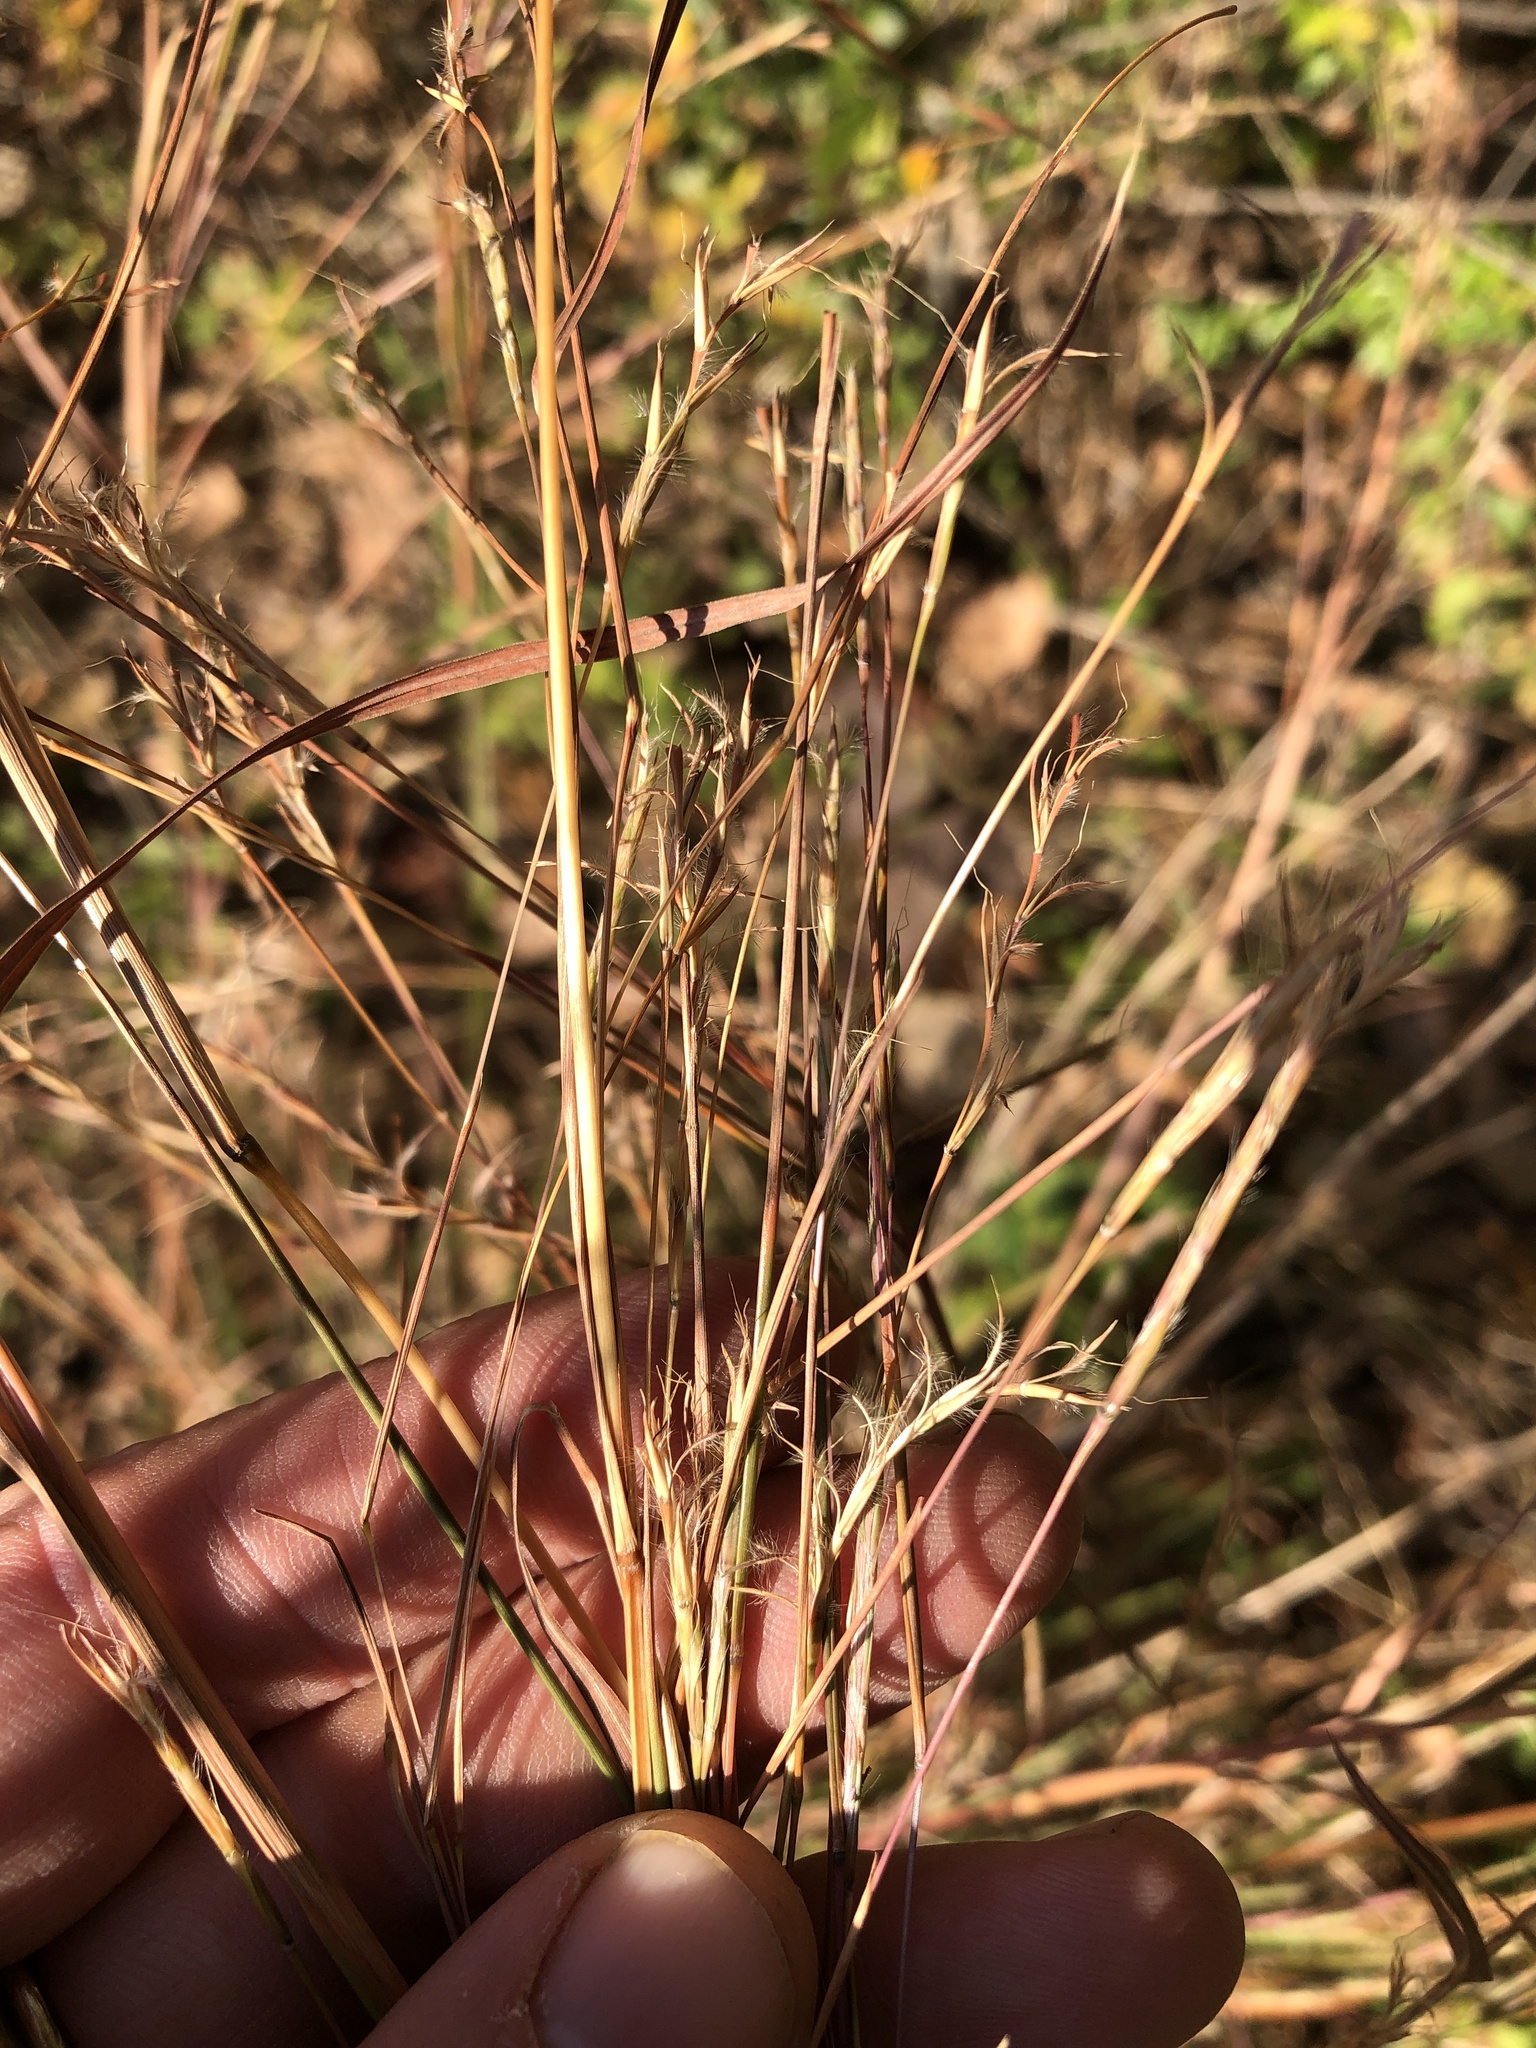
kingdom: Plantae
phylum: Tracheophyta
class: Liliopsida
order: Poales
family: Poaceae
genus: Schizachyrium
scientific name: Schizachyrium scoparium
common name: Little bluestem
